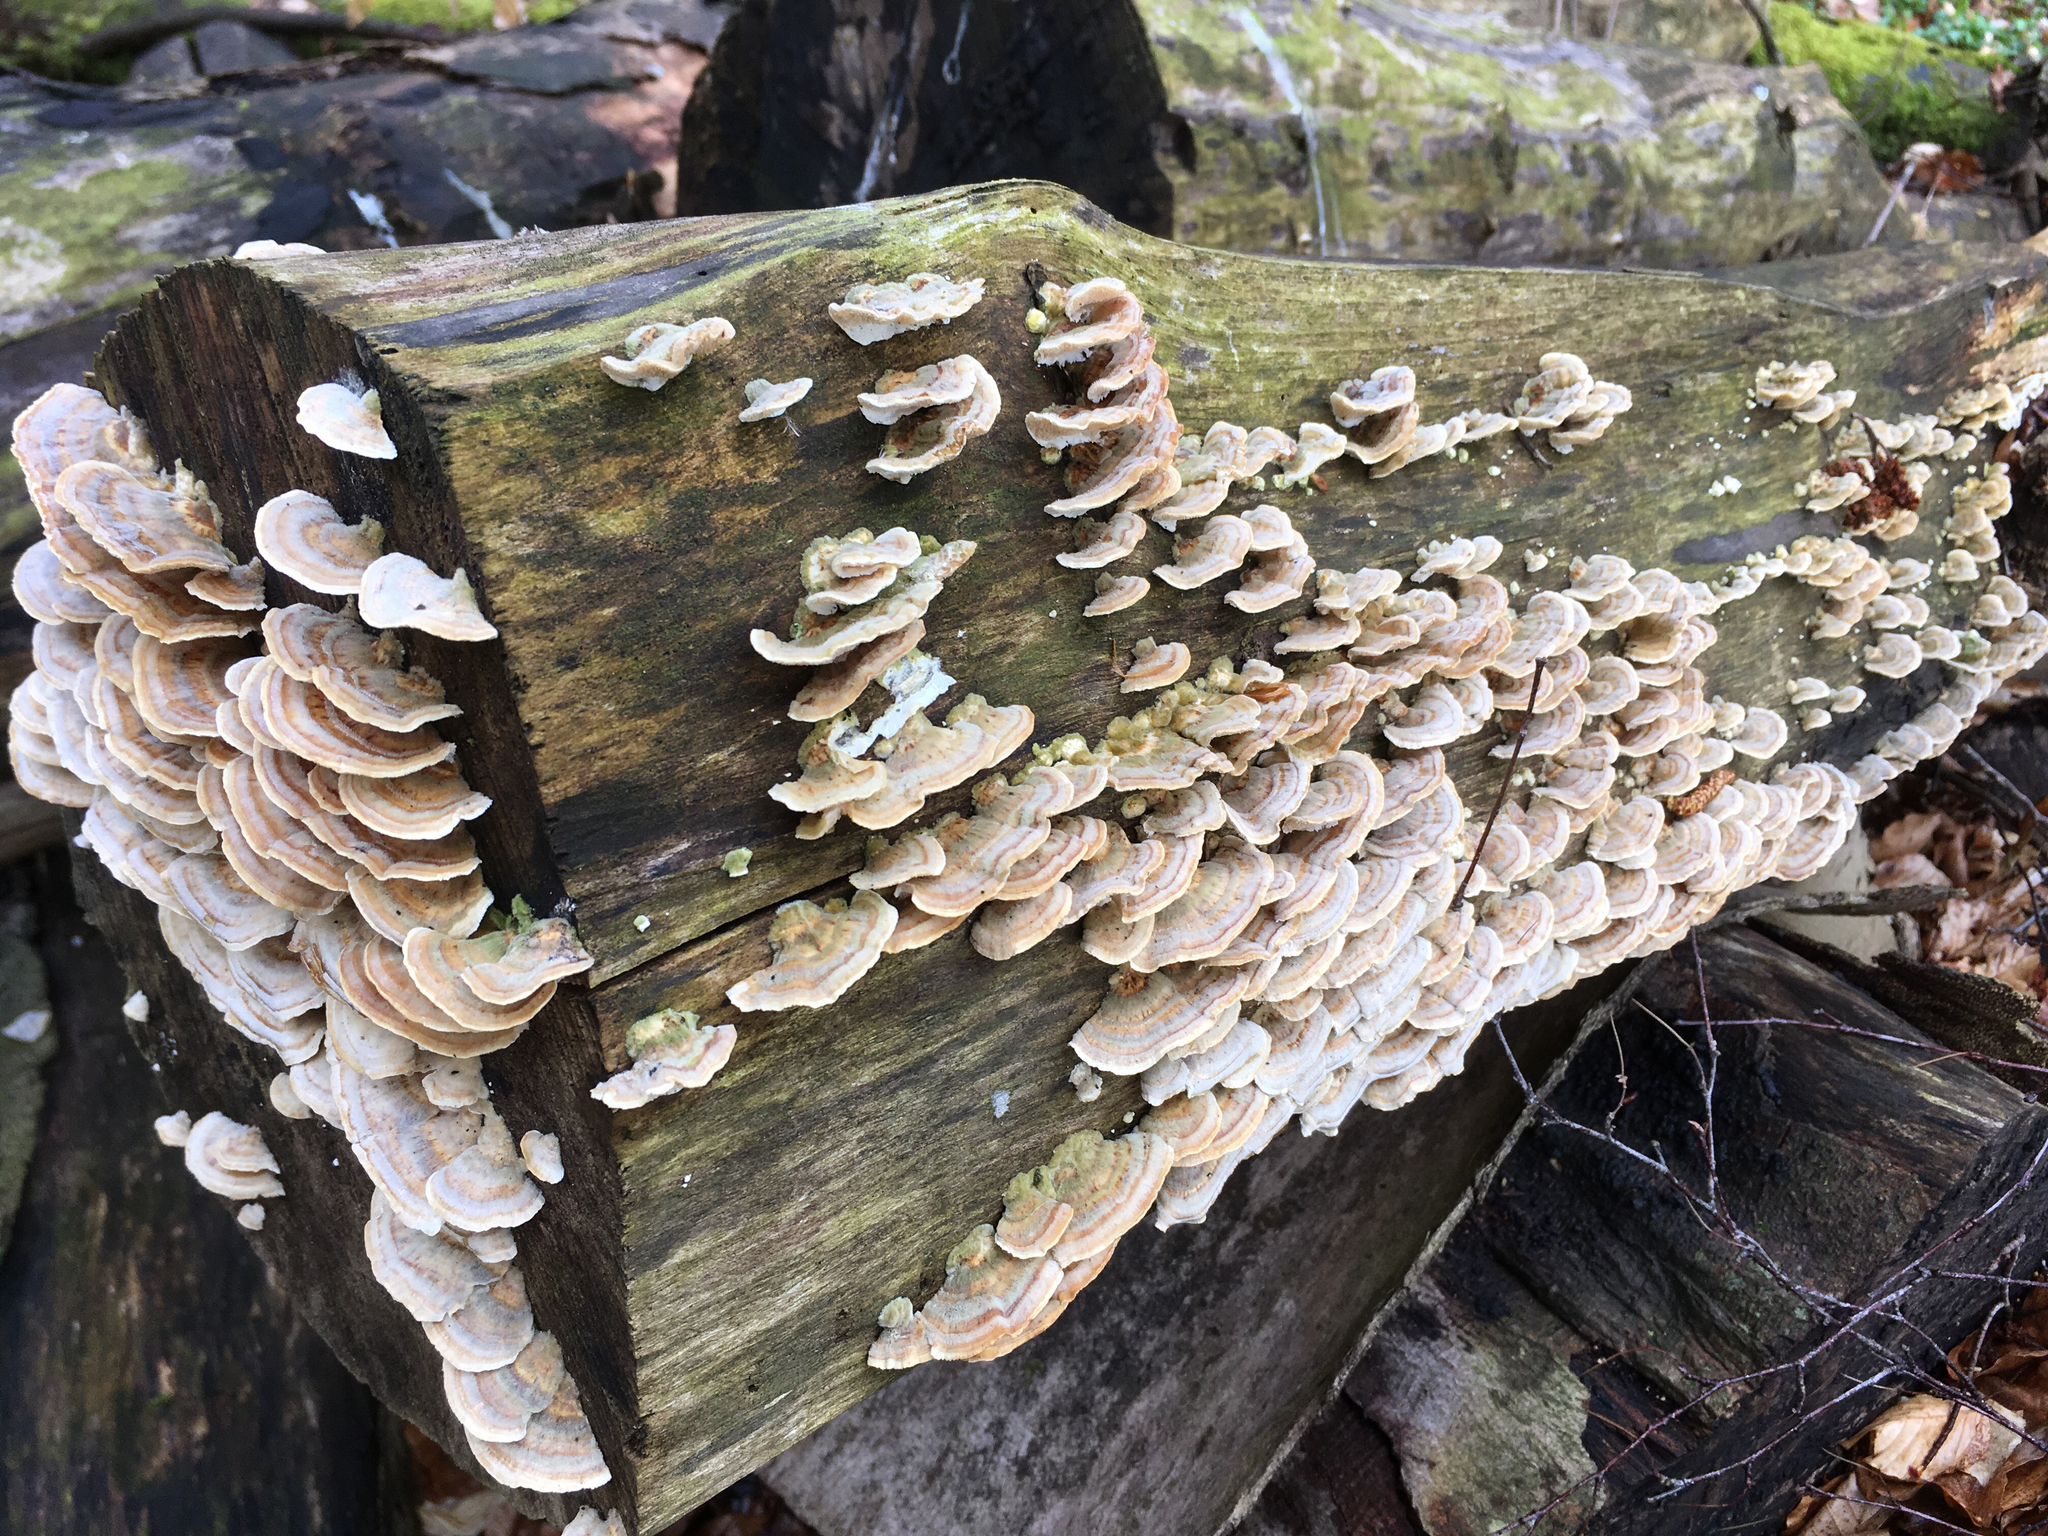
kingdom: Fungi
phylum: Basidiomycota
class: Agaricomycetes
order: Polyporales
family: Polyporaceae
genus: Trametes
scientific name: Trametes versicolor
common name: Turkeytail
